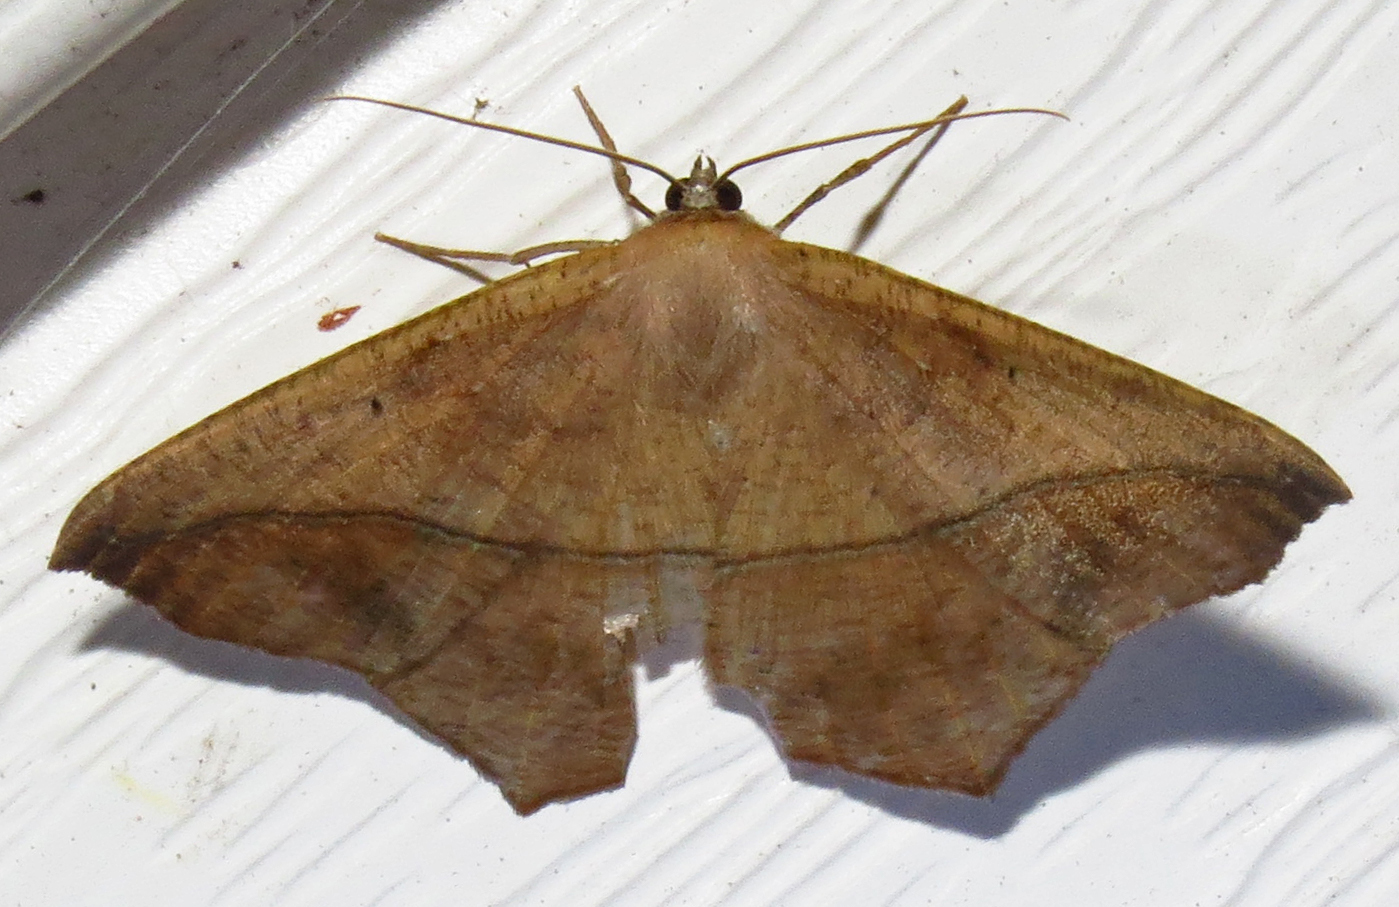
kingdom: Animalia
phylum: Arthropoda
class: Insecta
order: Lepidoptera
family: Geometridae
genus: Prochoerodes
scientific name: Prochoerodes lineola
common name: Large maple spanworm
